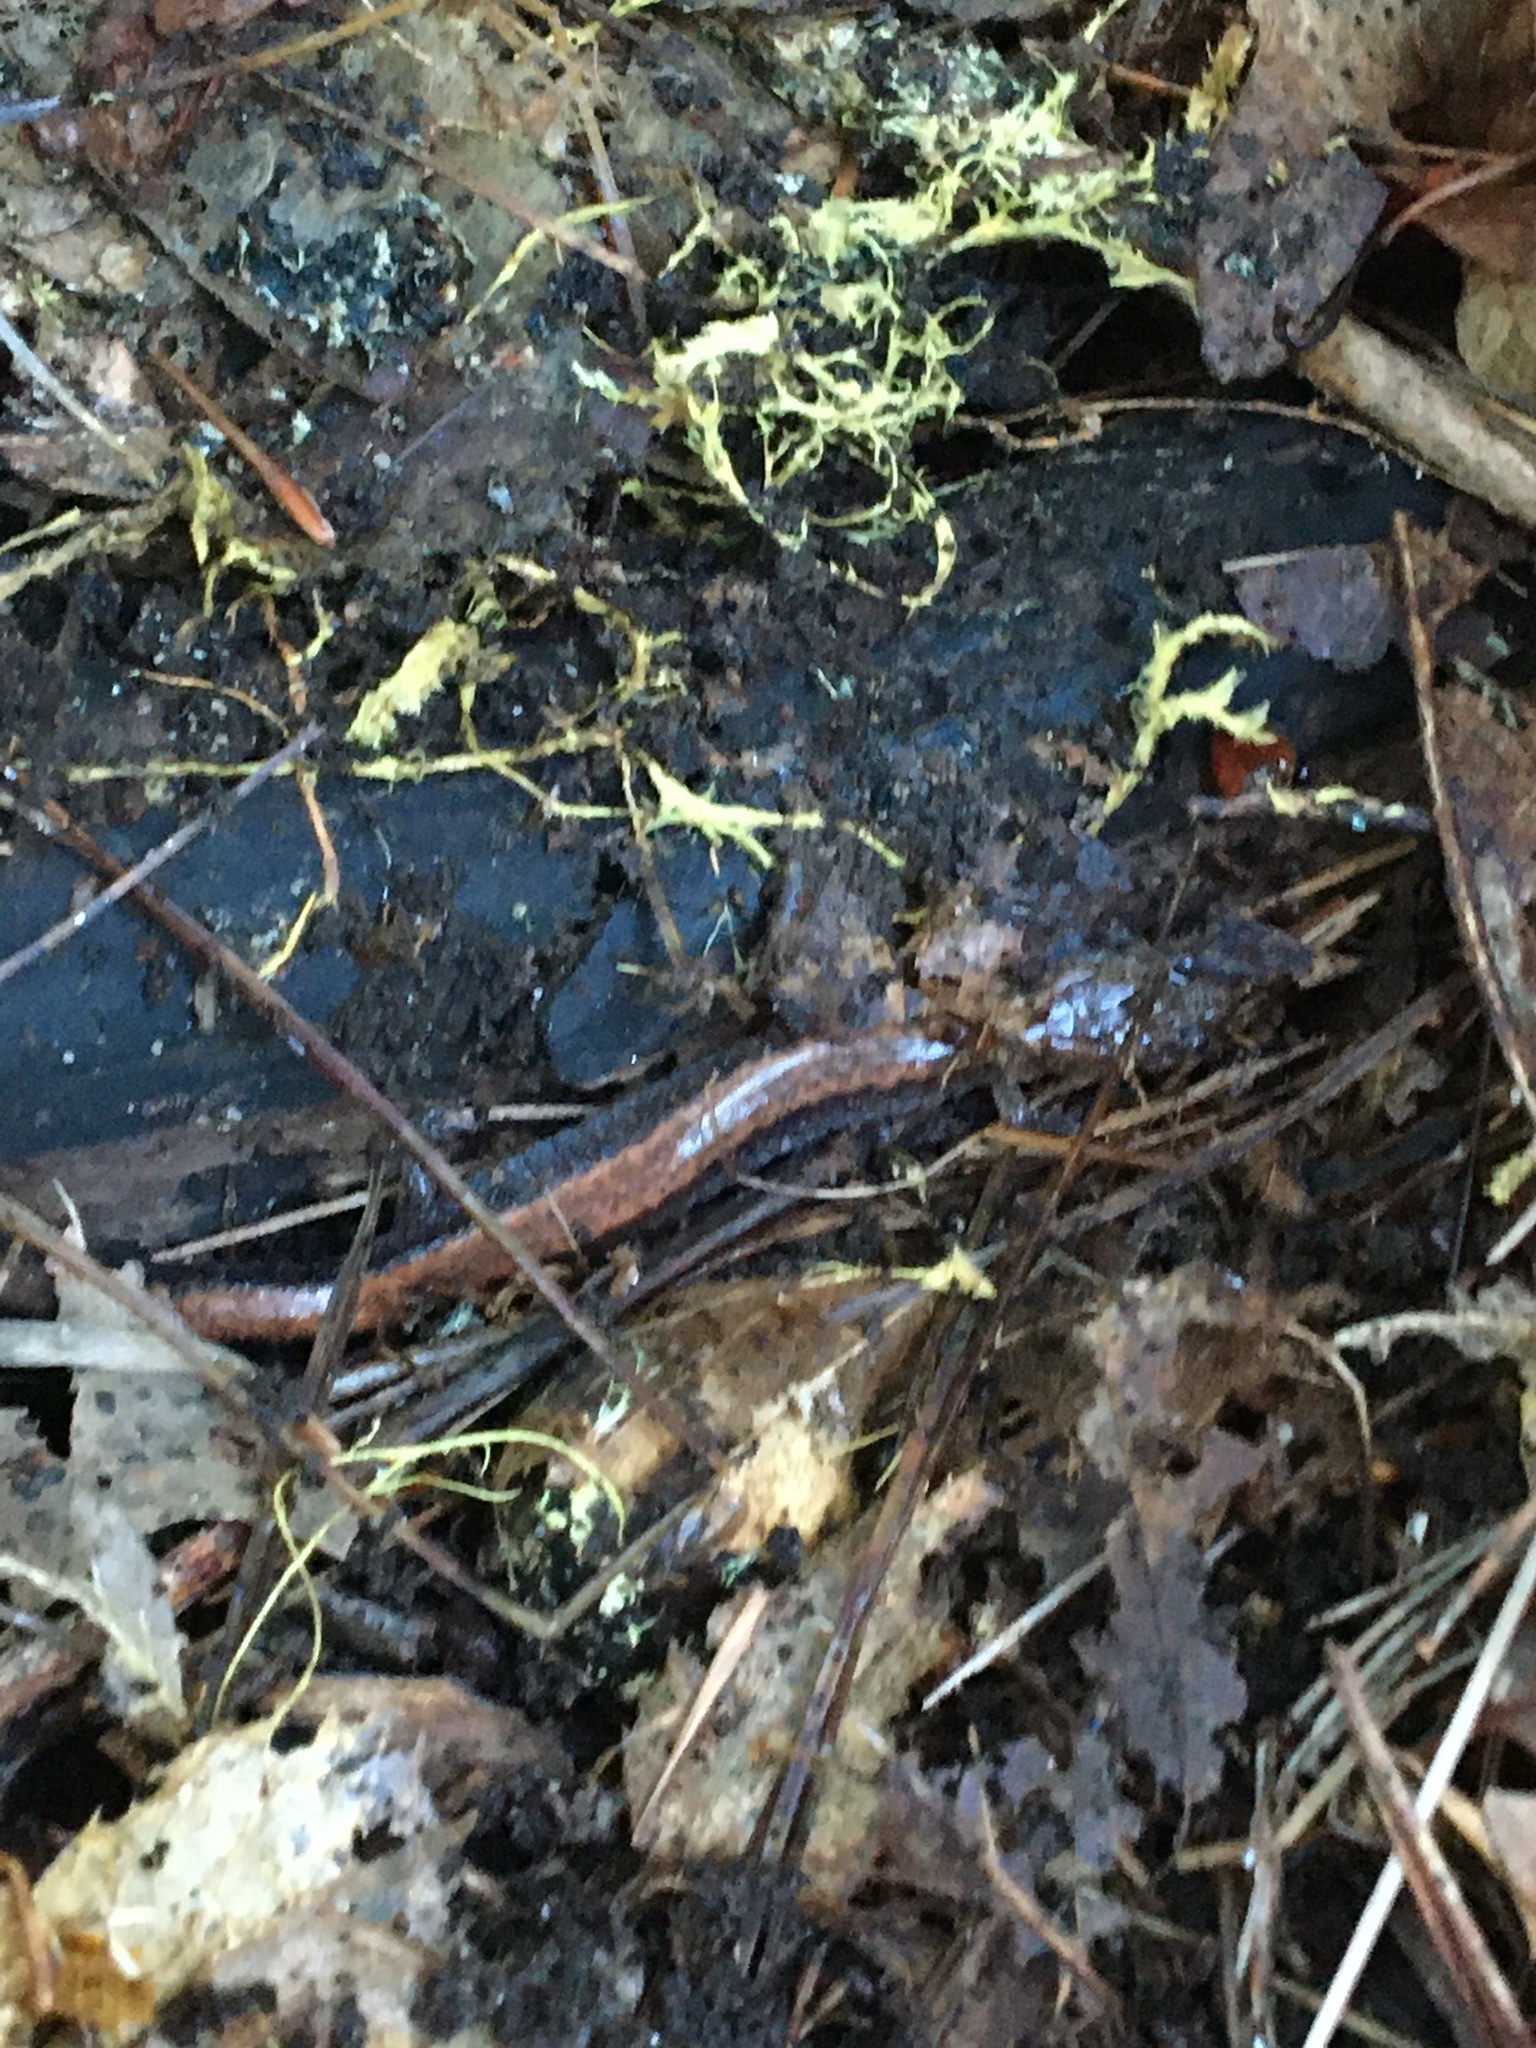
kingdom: Animalia
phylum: Chordata
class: Amphibia
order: Caudata
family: Plethodontidae
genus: Plethodon
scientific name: Plethodon cinereus
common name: Redback salamander
